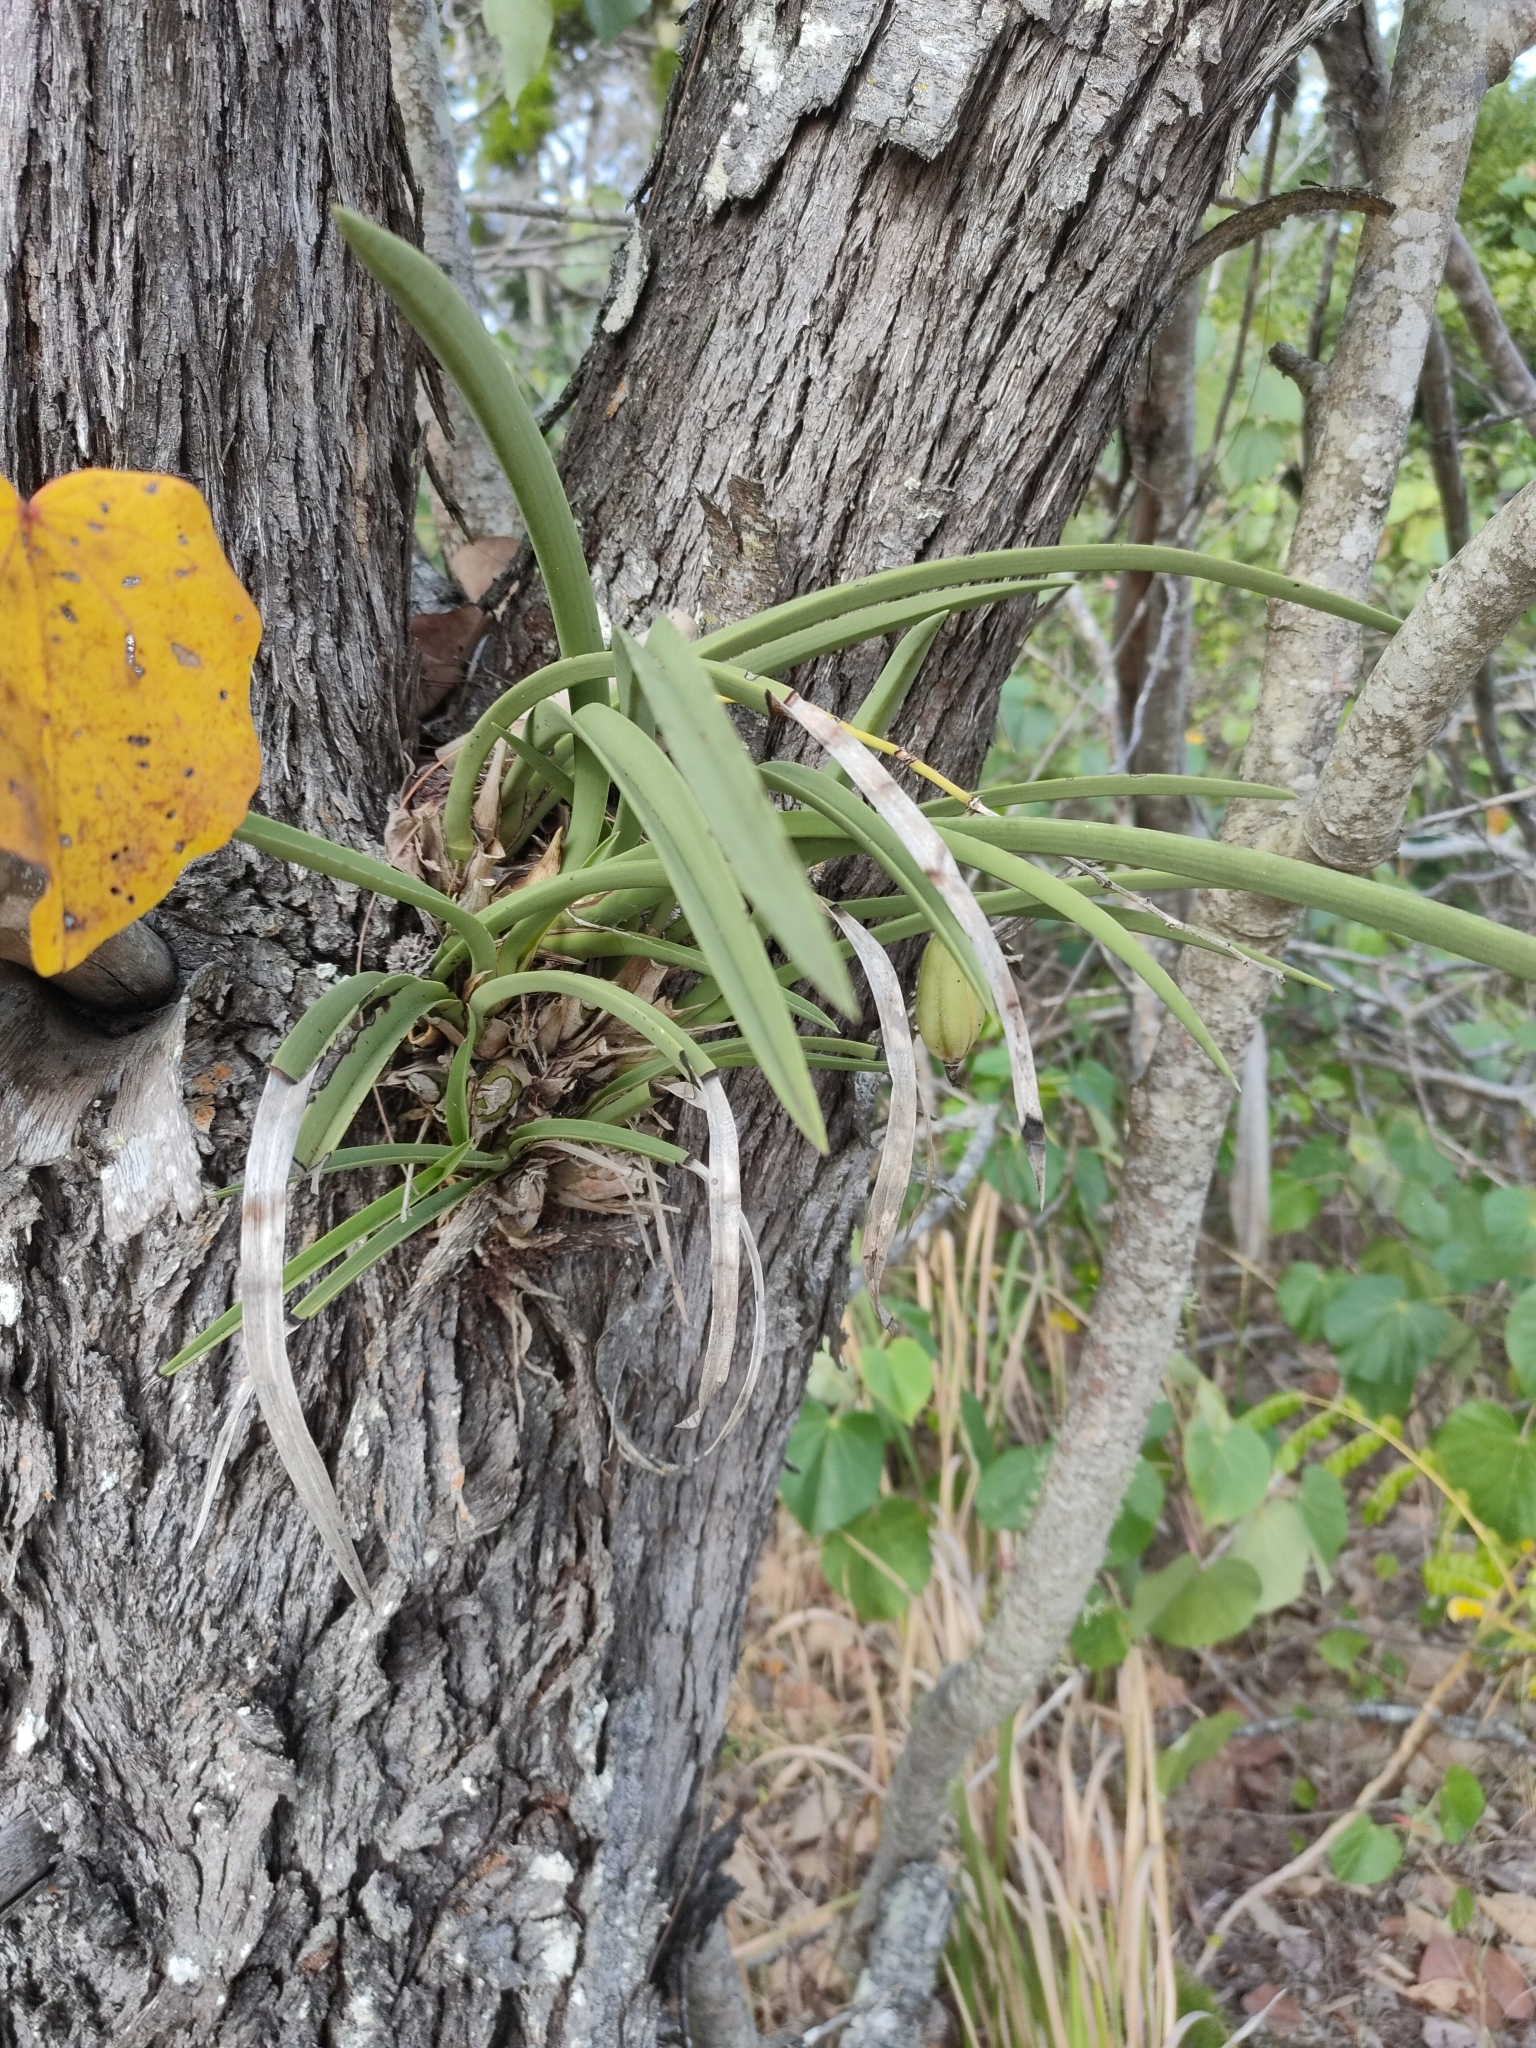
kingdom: Plantae
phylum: Tracheophyta
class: Liliopsida
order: Asparagales
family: Orchidaceae
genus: Cymbidium
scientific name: Cymbidium canaliculatum
